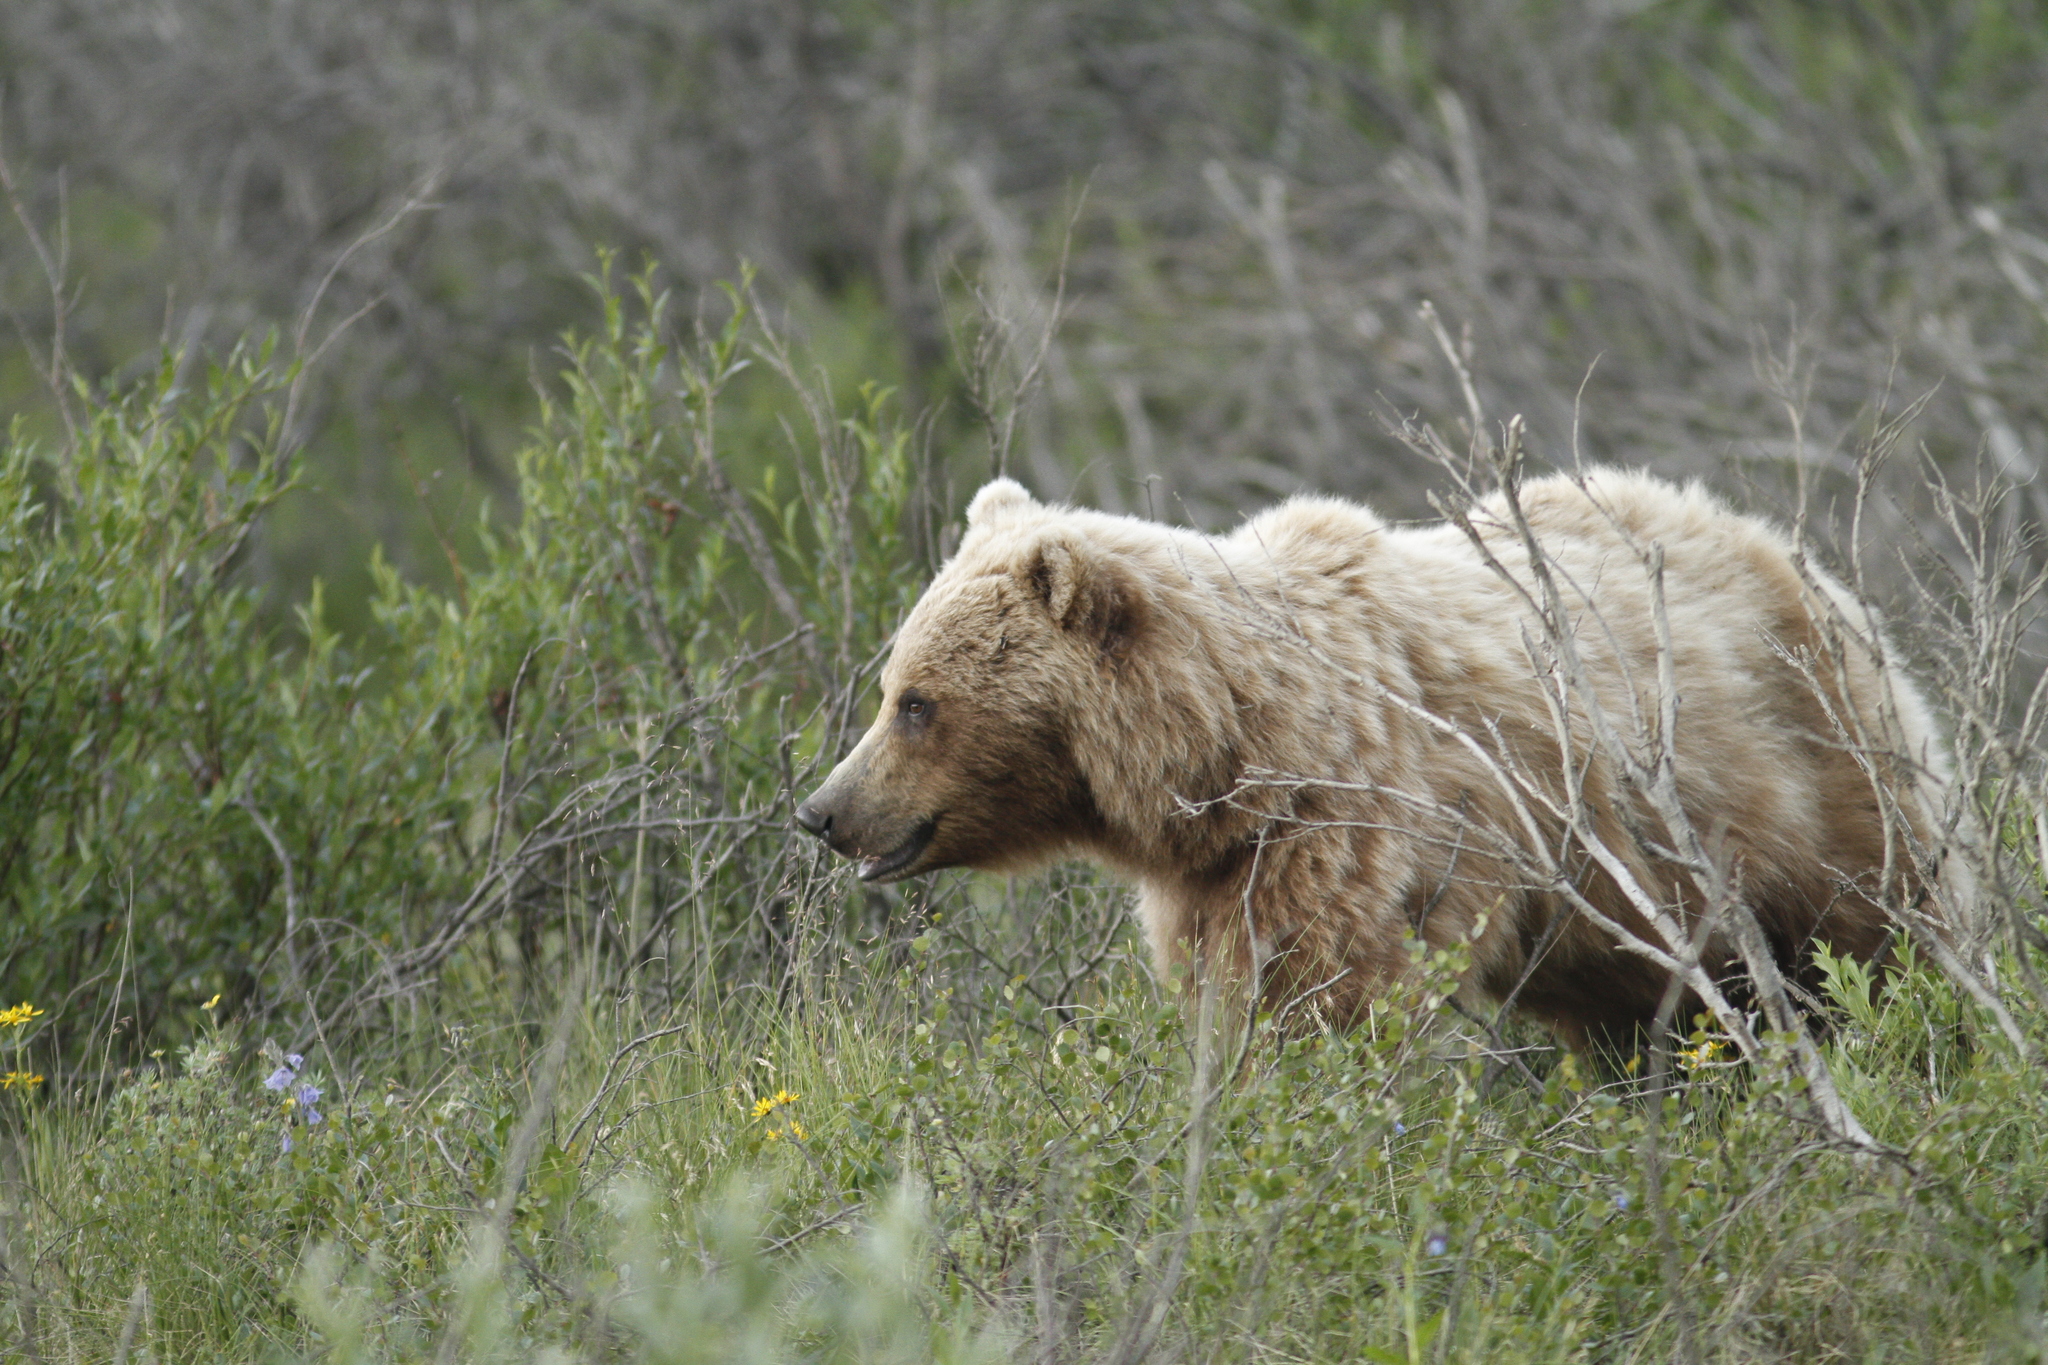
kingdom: Animalia
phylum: Chordata
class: Mammalia
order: Carnivora
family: Ursidae
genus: Ursus
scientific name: Ursus arctos
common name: Brown bear
